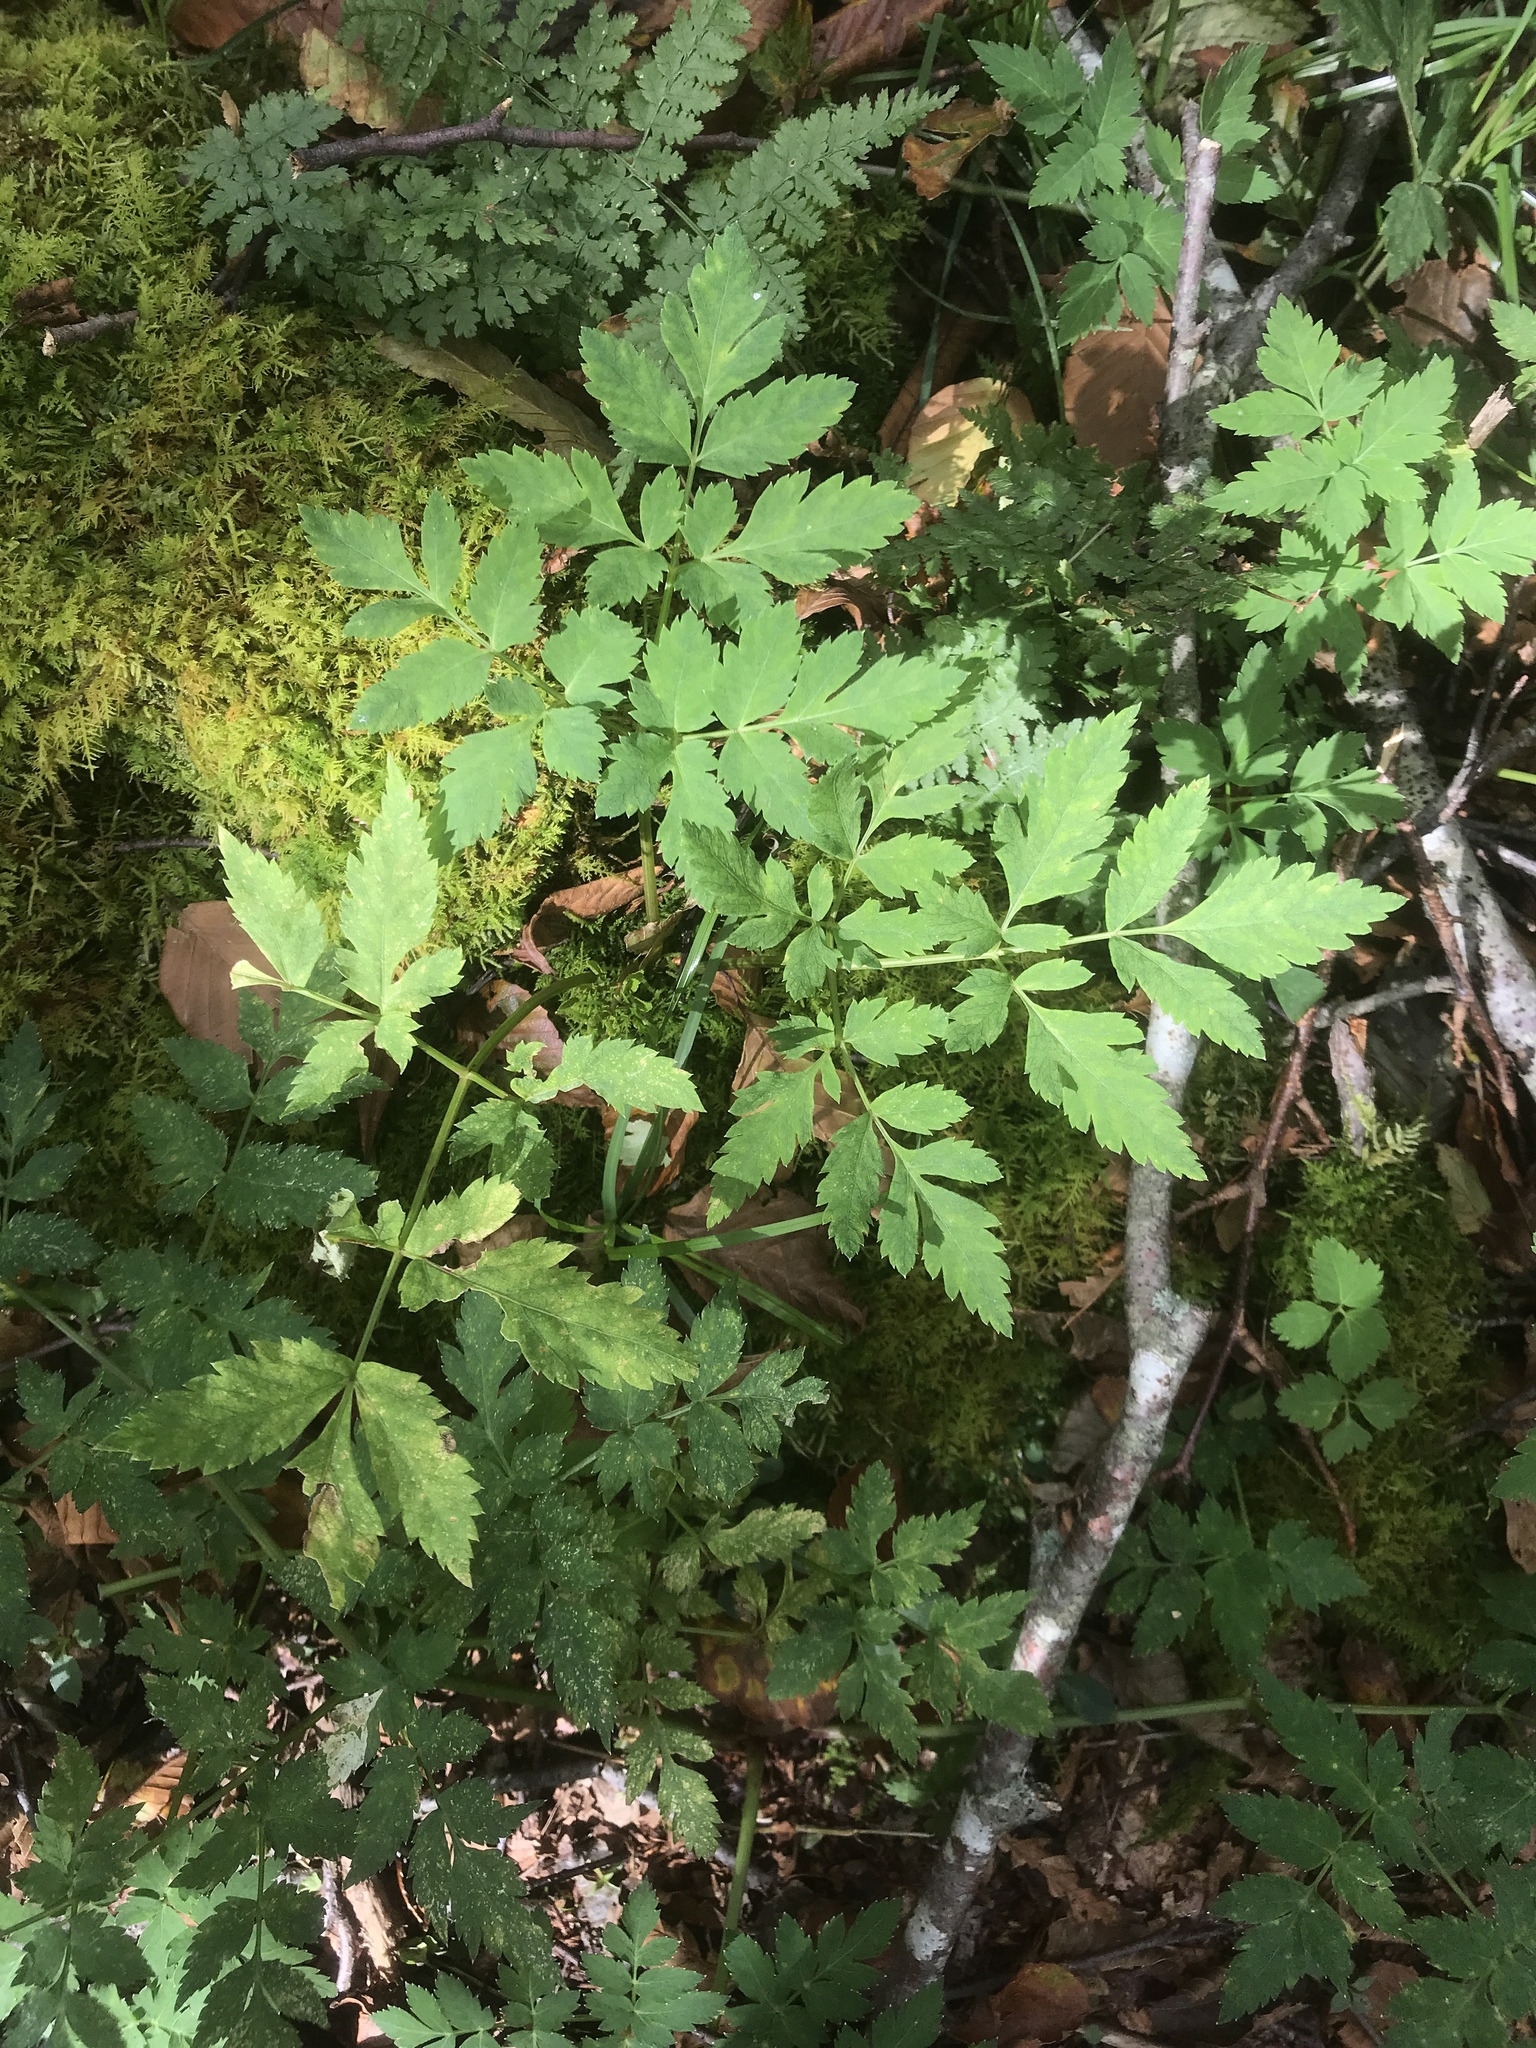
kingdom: Plantae
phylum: Tracheophyta
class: Magnoliopsida
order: Apiales
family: Apiaceae
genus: Angelica
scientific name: Angelica triquinata
